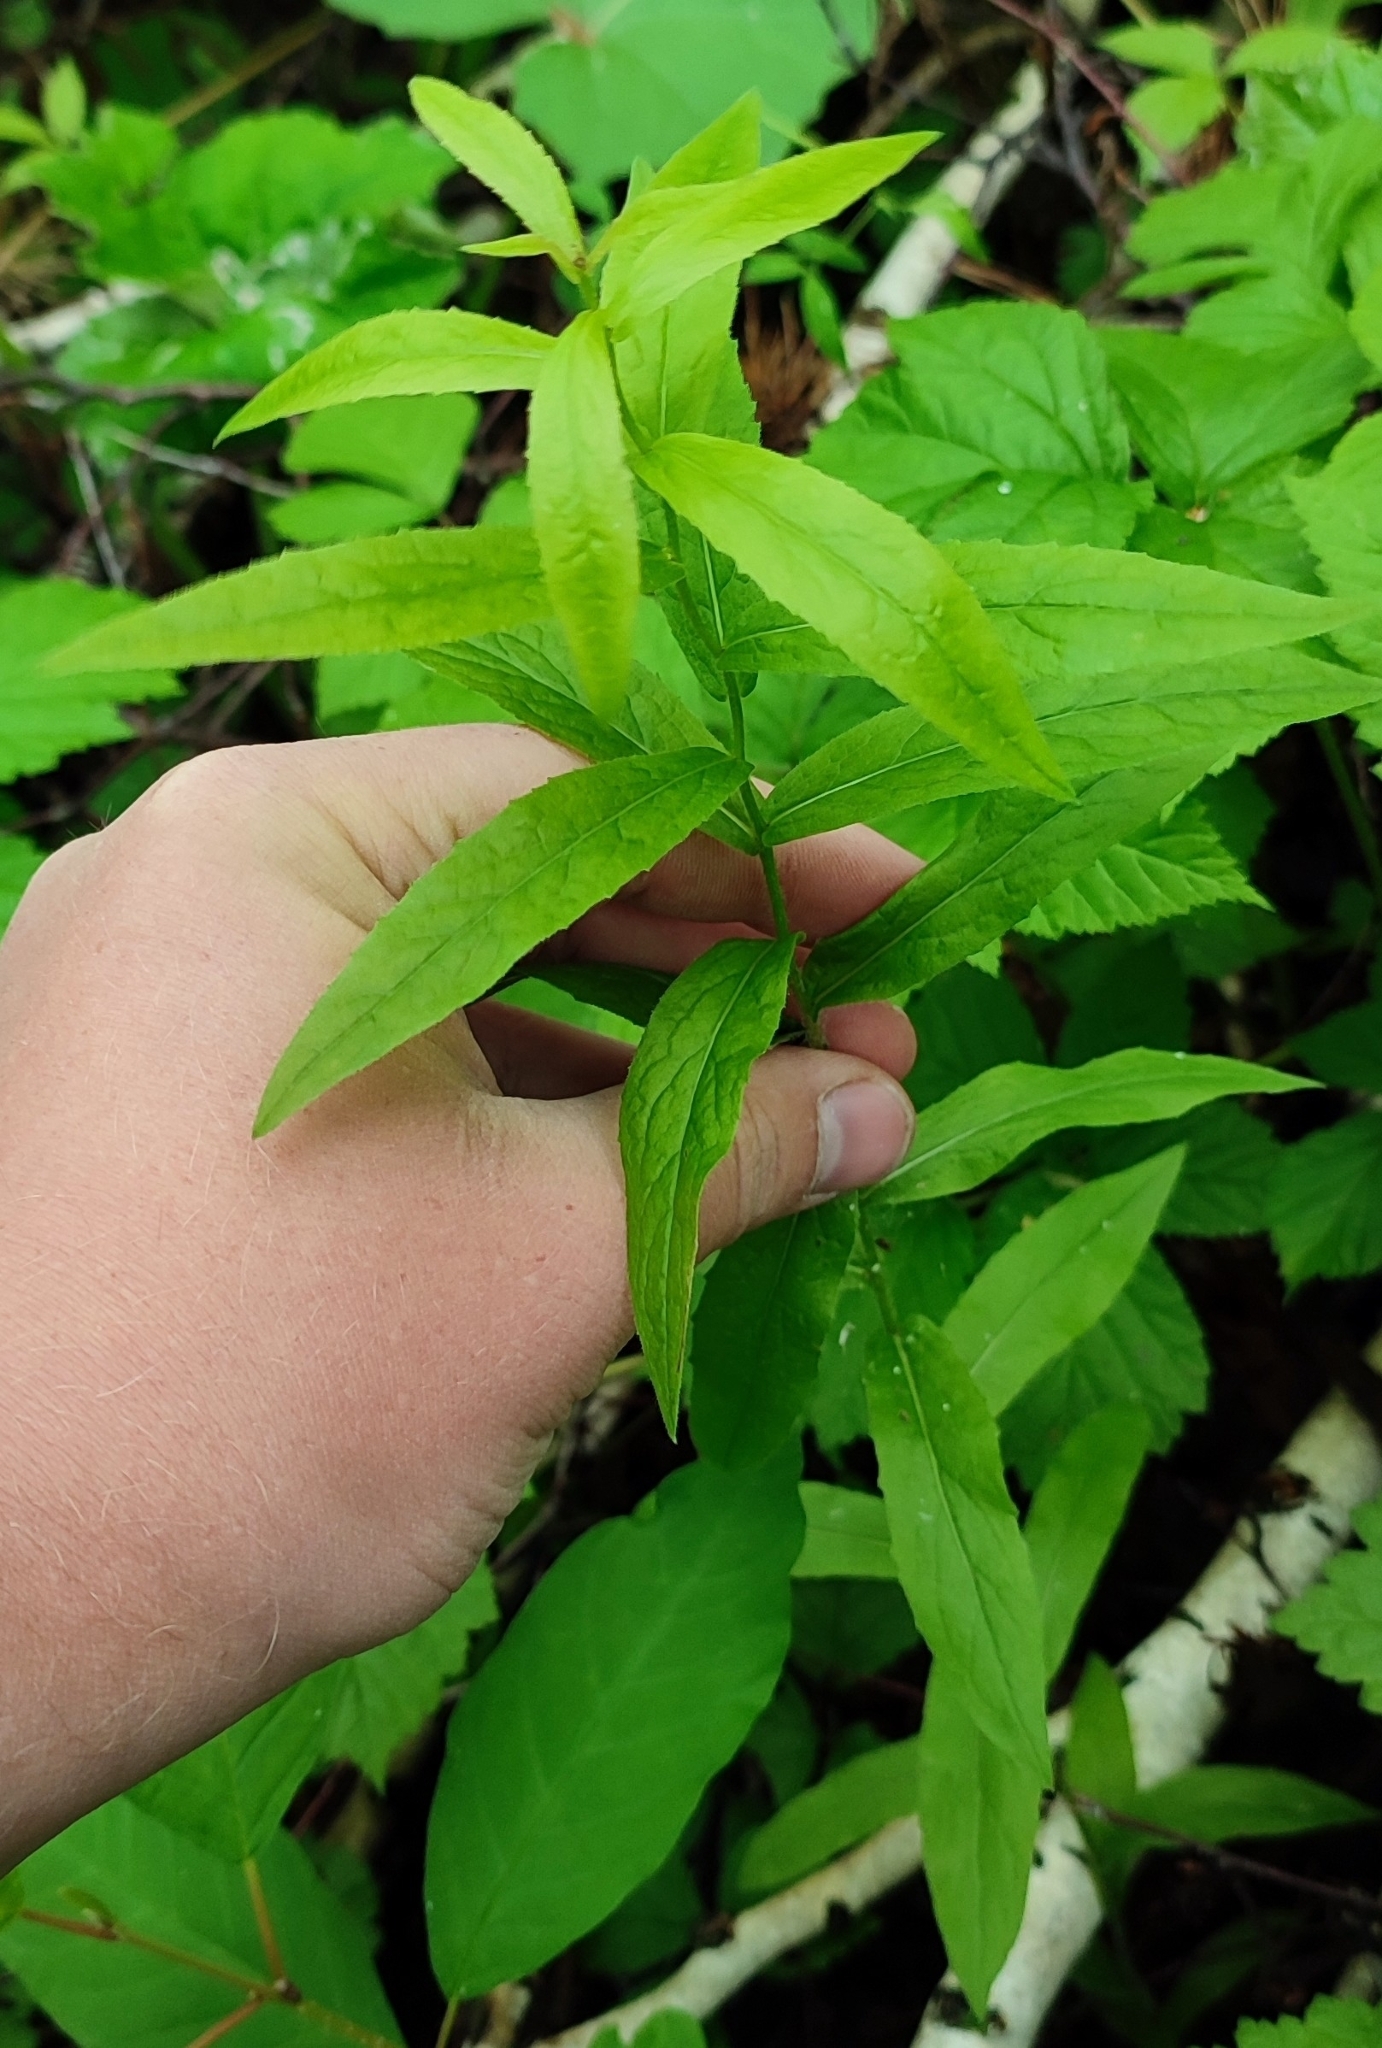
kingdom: Plantae
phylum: Tracheophyta
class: Magnoliopsida
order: Asterales
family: Asteraceae
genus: Pentanema
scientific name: Pentanema salicinum
